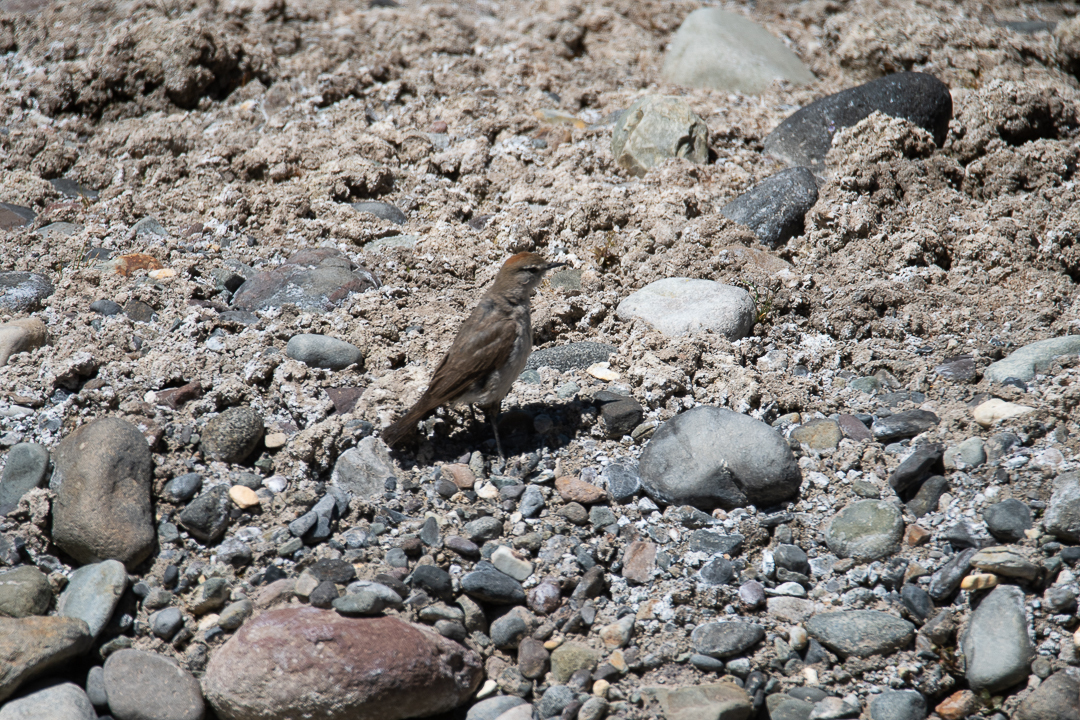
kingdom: Animalia
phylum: Chordata
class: Aves
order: Passeriformes
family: Tyrannidae
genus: Muscisaxicola
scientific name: Muscisaxicola albilora
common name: White-browed ground tyrant
